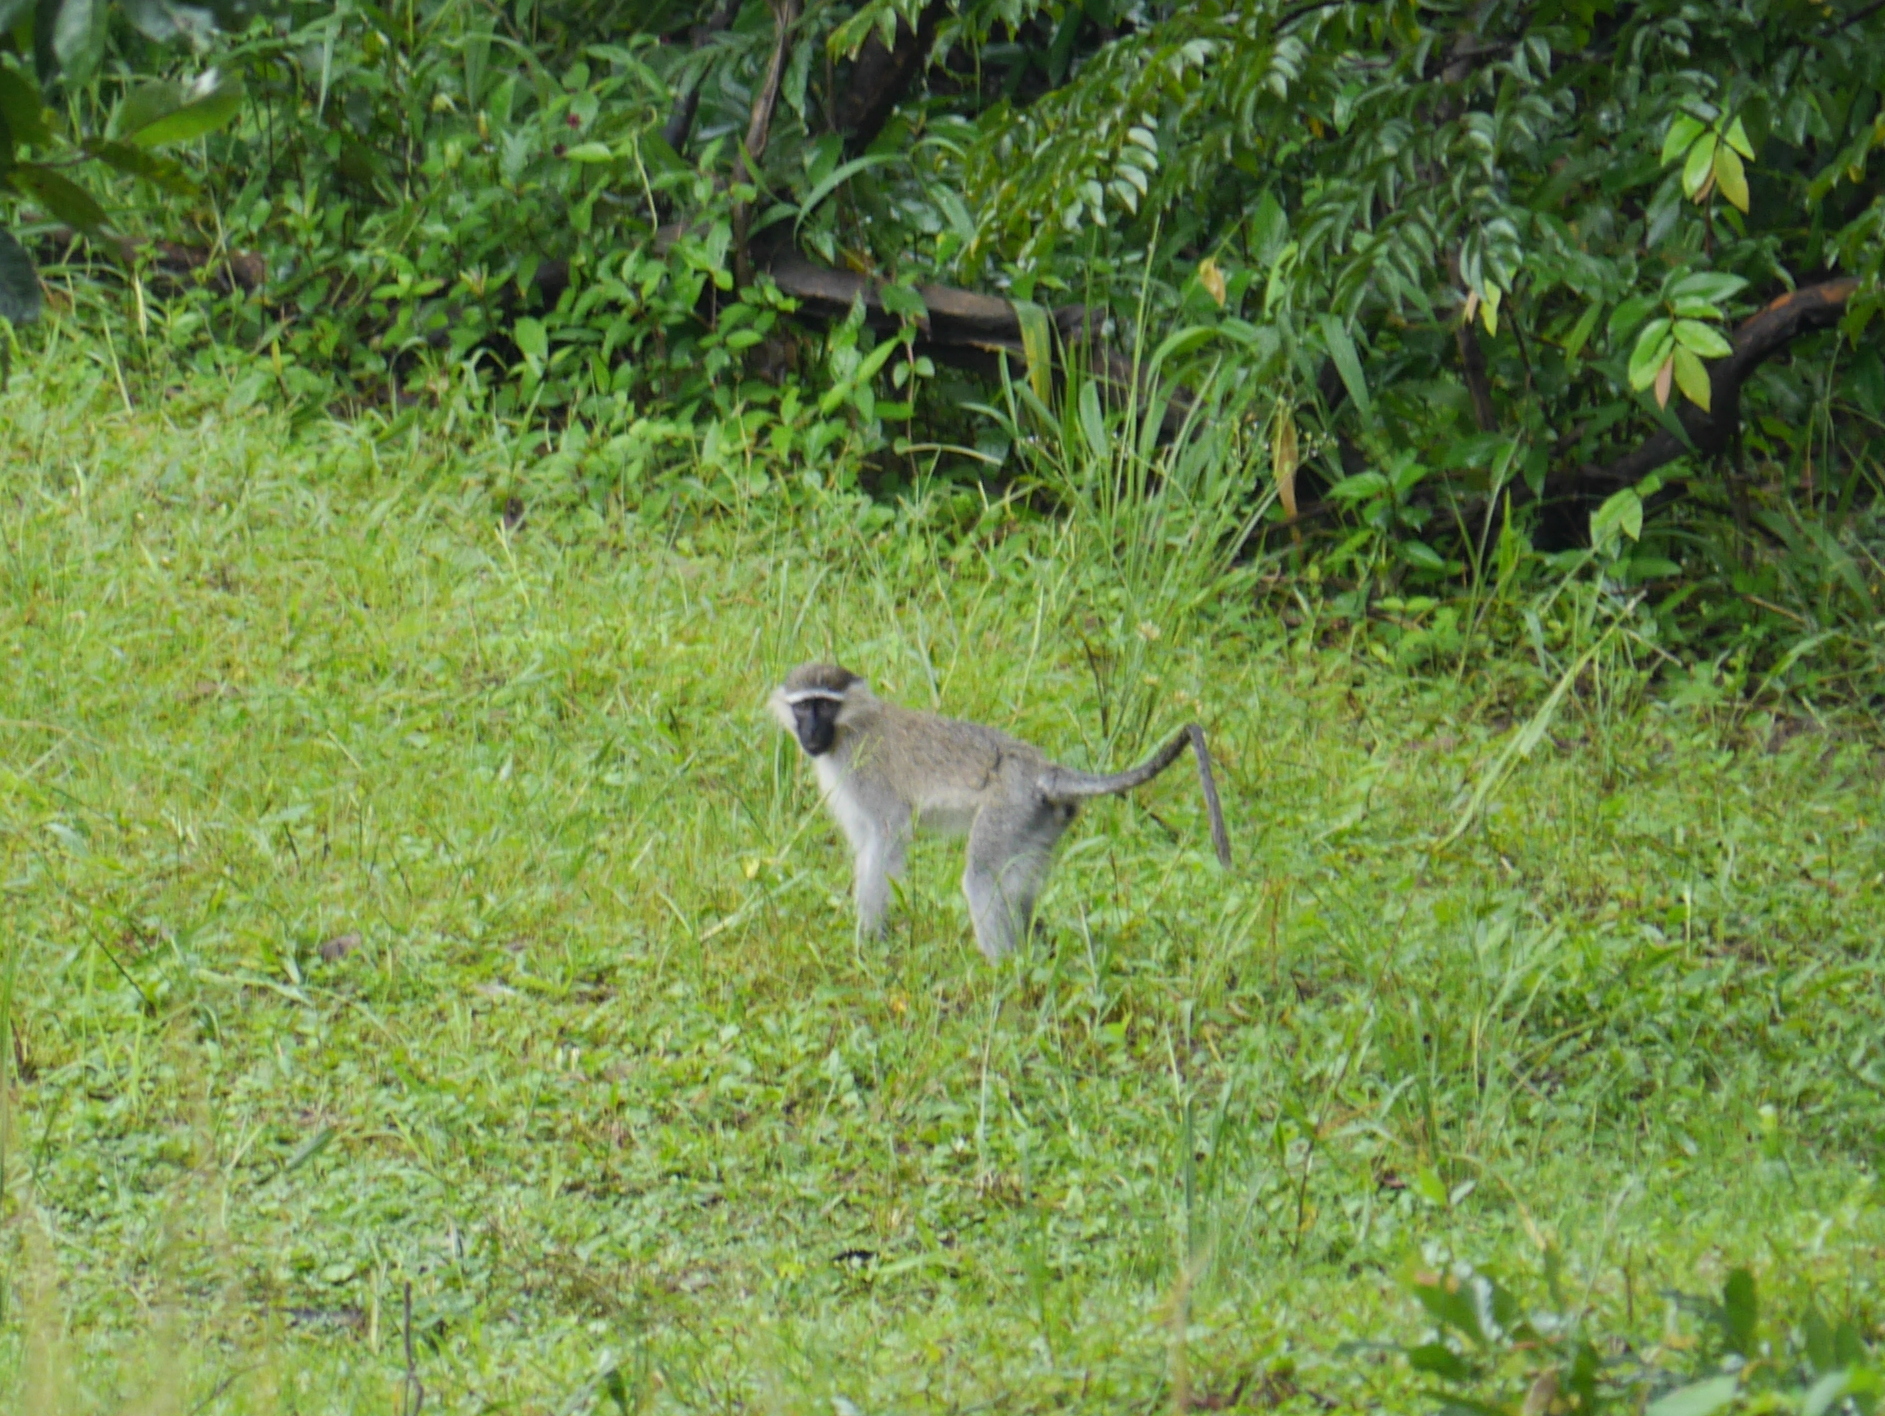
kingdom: Animalia
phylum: Chordata
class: Mammalia
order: Primates
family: Cercopithecidae
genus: Chlorocebus
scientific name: Chlorocebus tantalus
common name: Tantalus monkey
